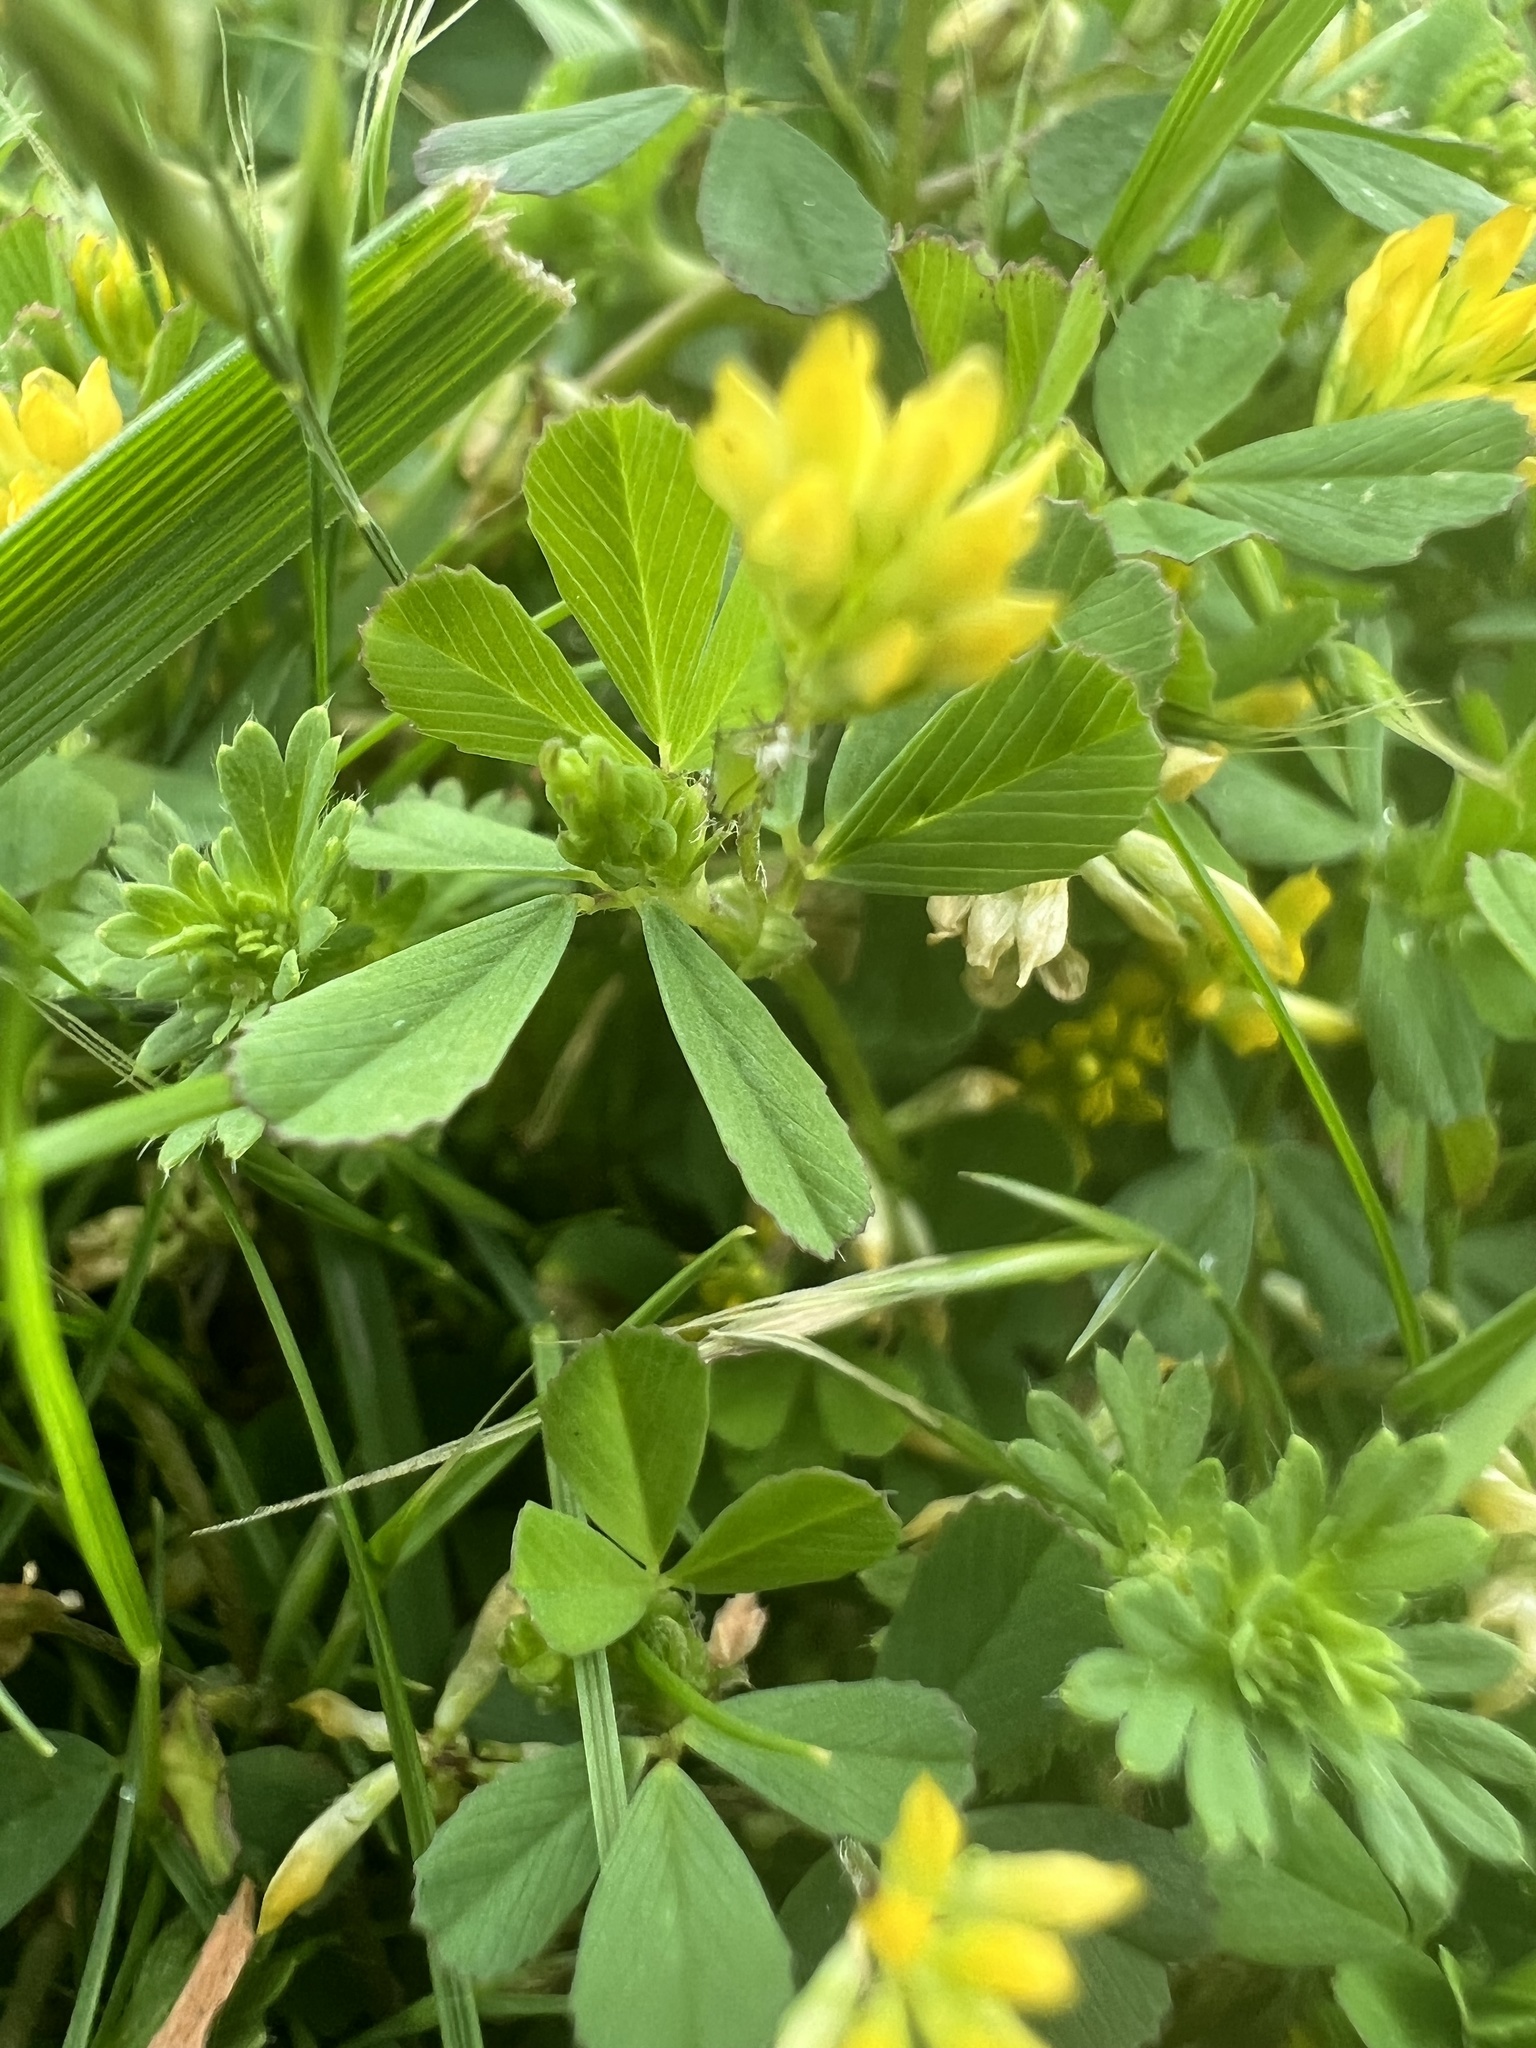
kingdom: Plantae
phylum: Tracheophyta
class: Magnoliopsida
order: Fabales
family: Fabaceae
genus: Trifolium
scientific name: Trifolium dubium
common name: Suckling clover
